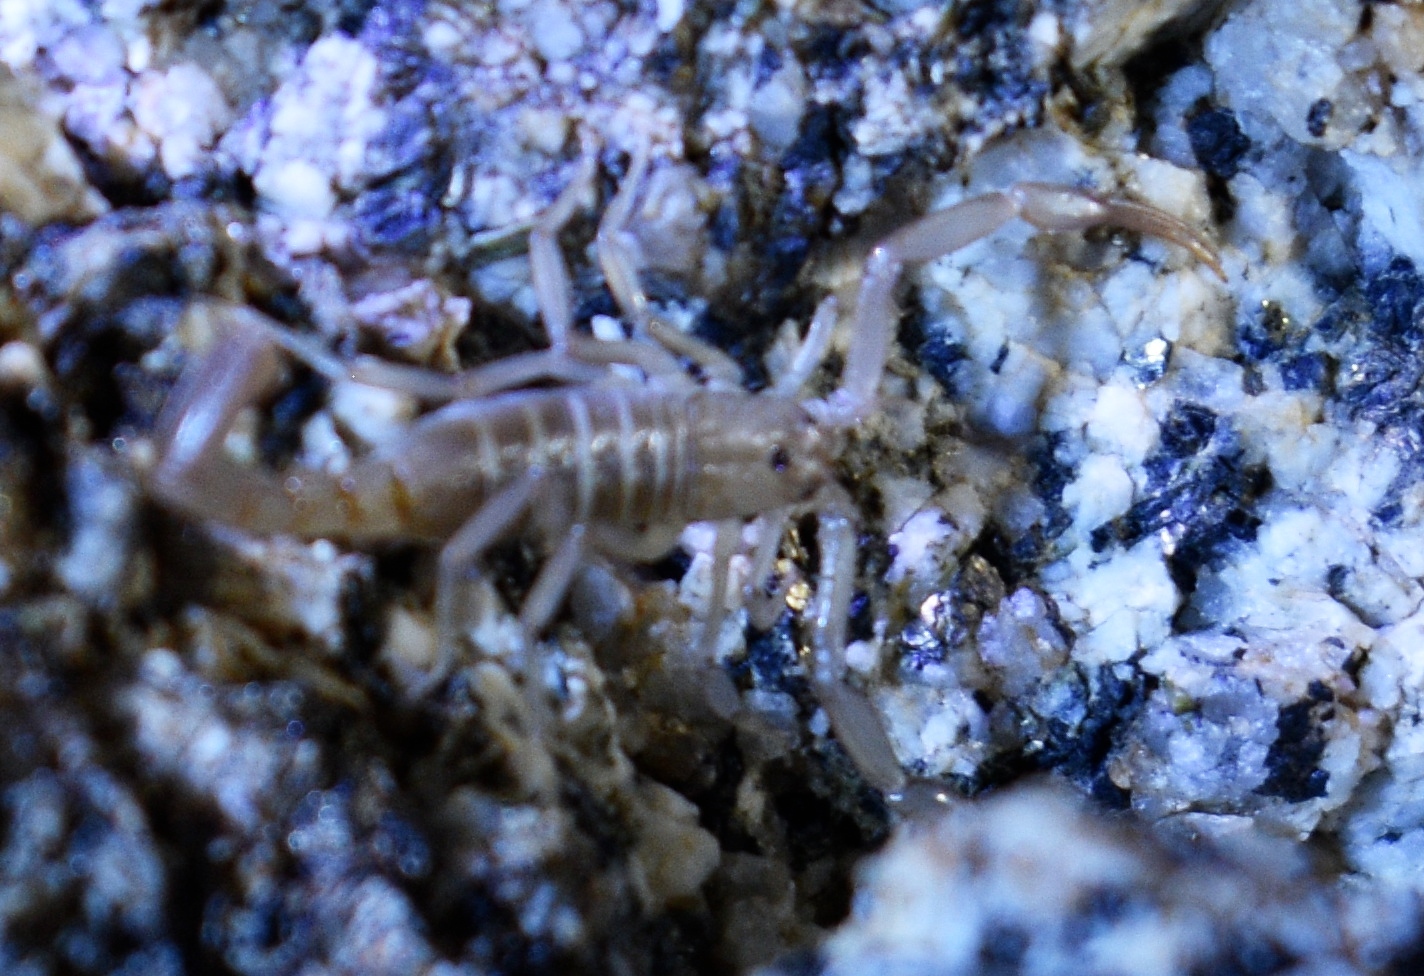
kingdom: Animalia
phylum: Arthropoda
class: Arachnida
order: Scorpiones
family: Vaejovidae
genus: Stahnkeus
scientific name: Stahnkeus subtilimanus
